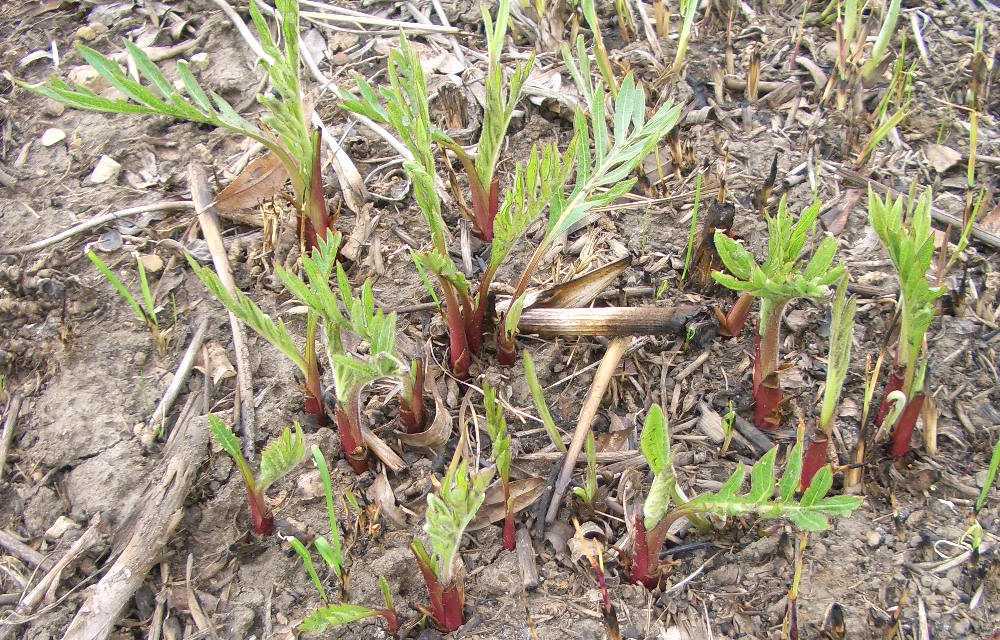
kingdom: Plantae
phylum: Tracheophyta
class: Magnoliopsida
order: Asterales
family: Asteraceae
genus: Silphium
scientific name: Silphium laciniatum
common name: Polarplant
